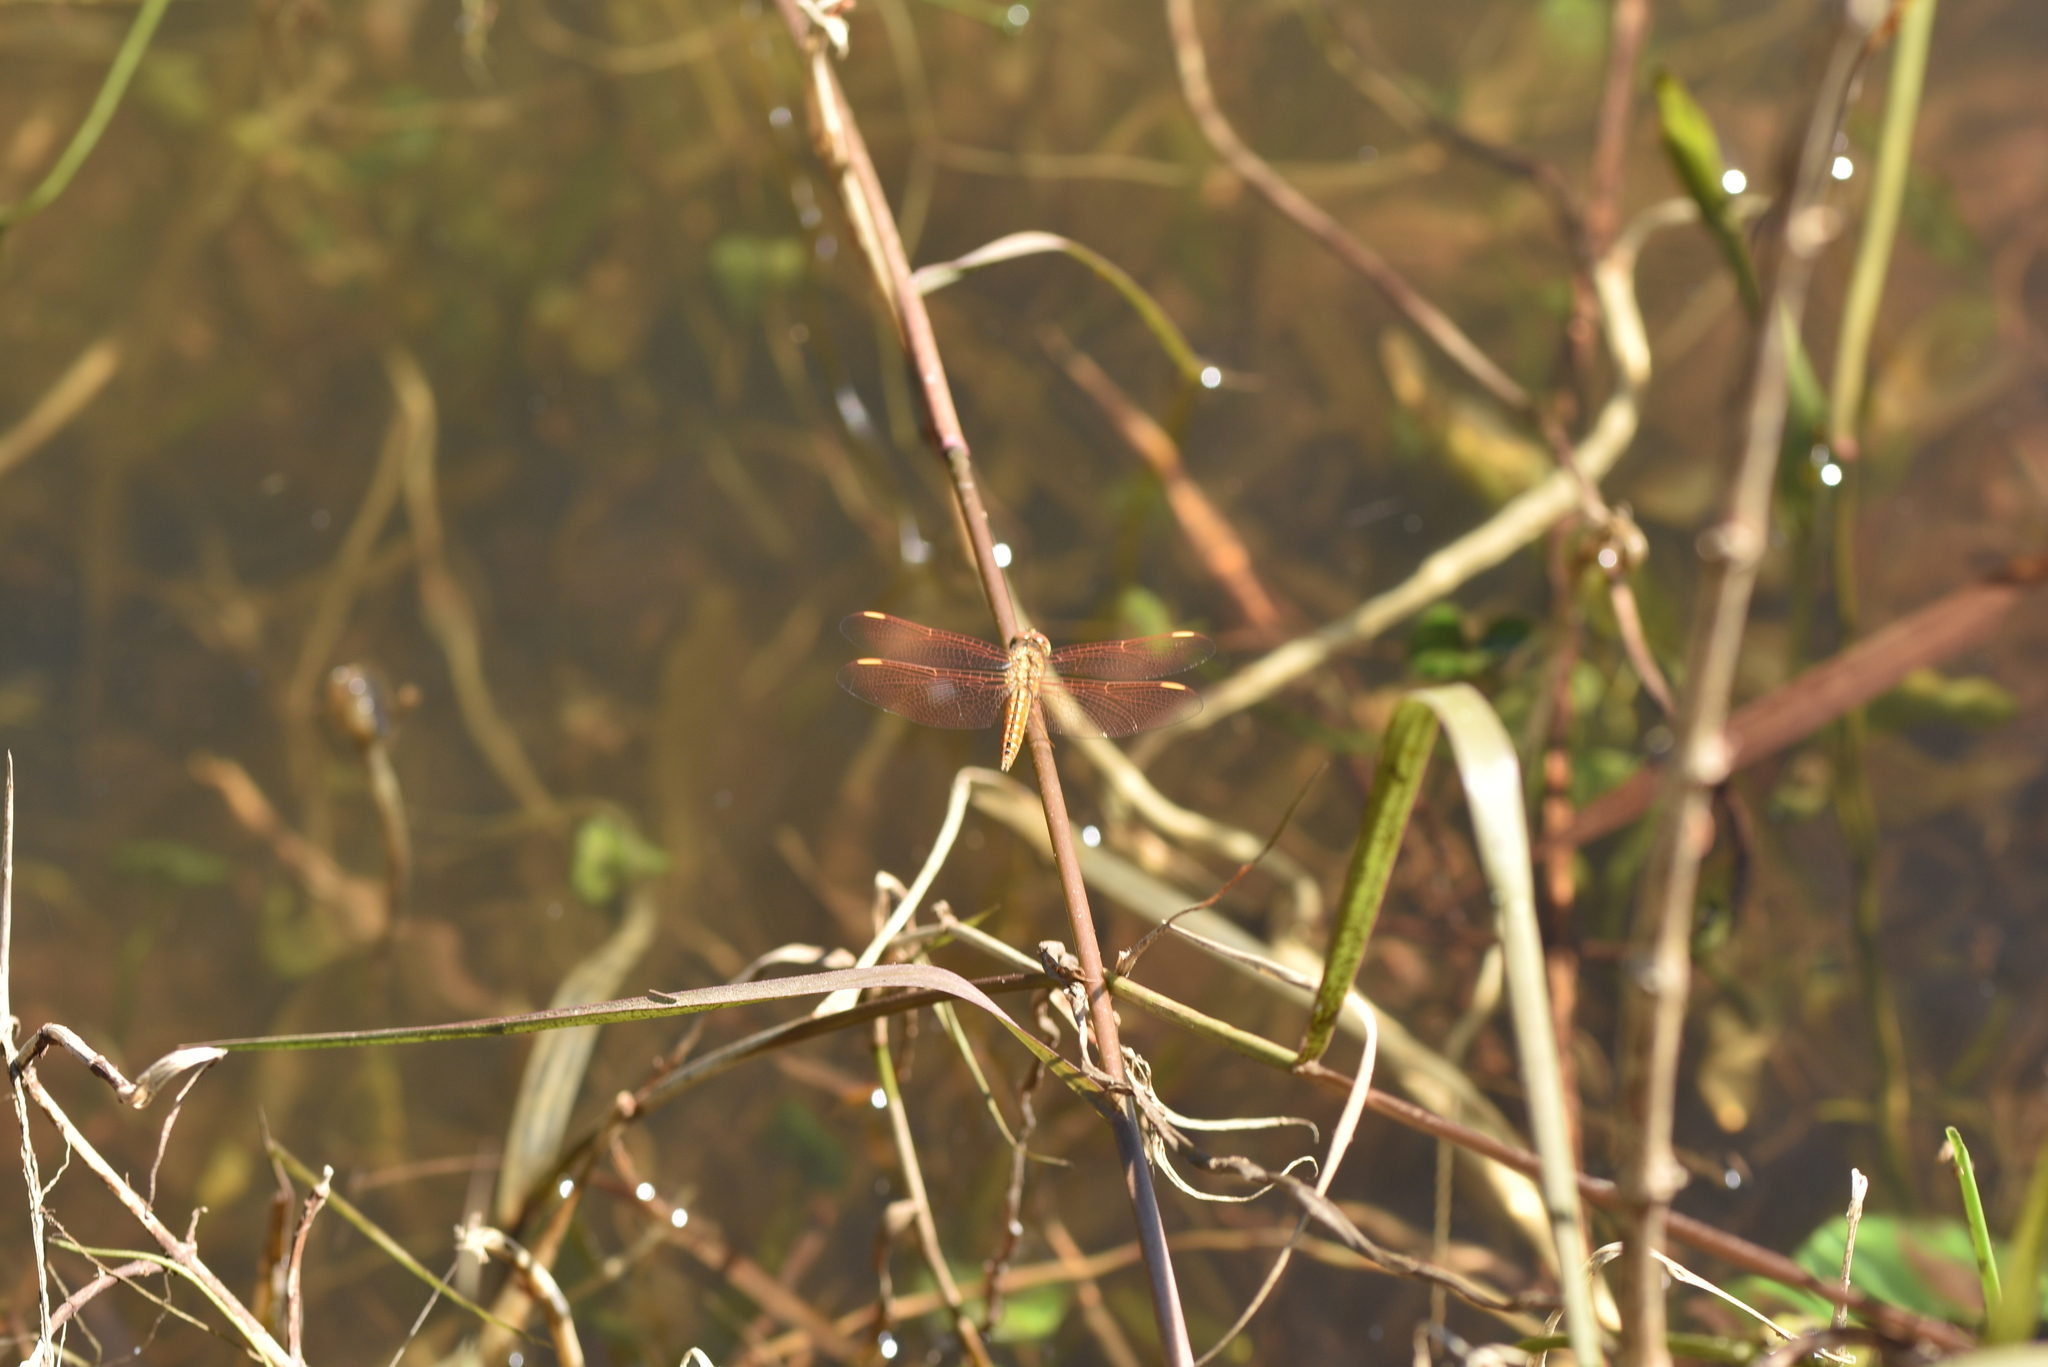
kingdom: Animalia
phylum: Arthropoda
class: Insecta
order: Odonata
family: Libellulidae
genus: Brachythemis
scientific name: Brachythemis contaminata
